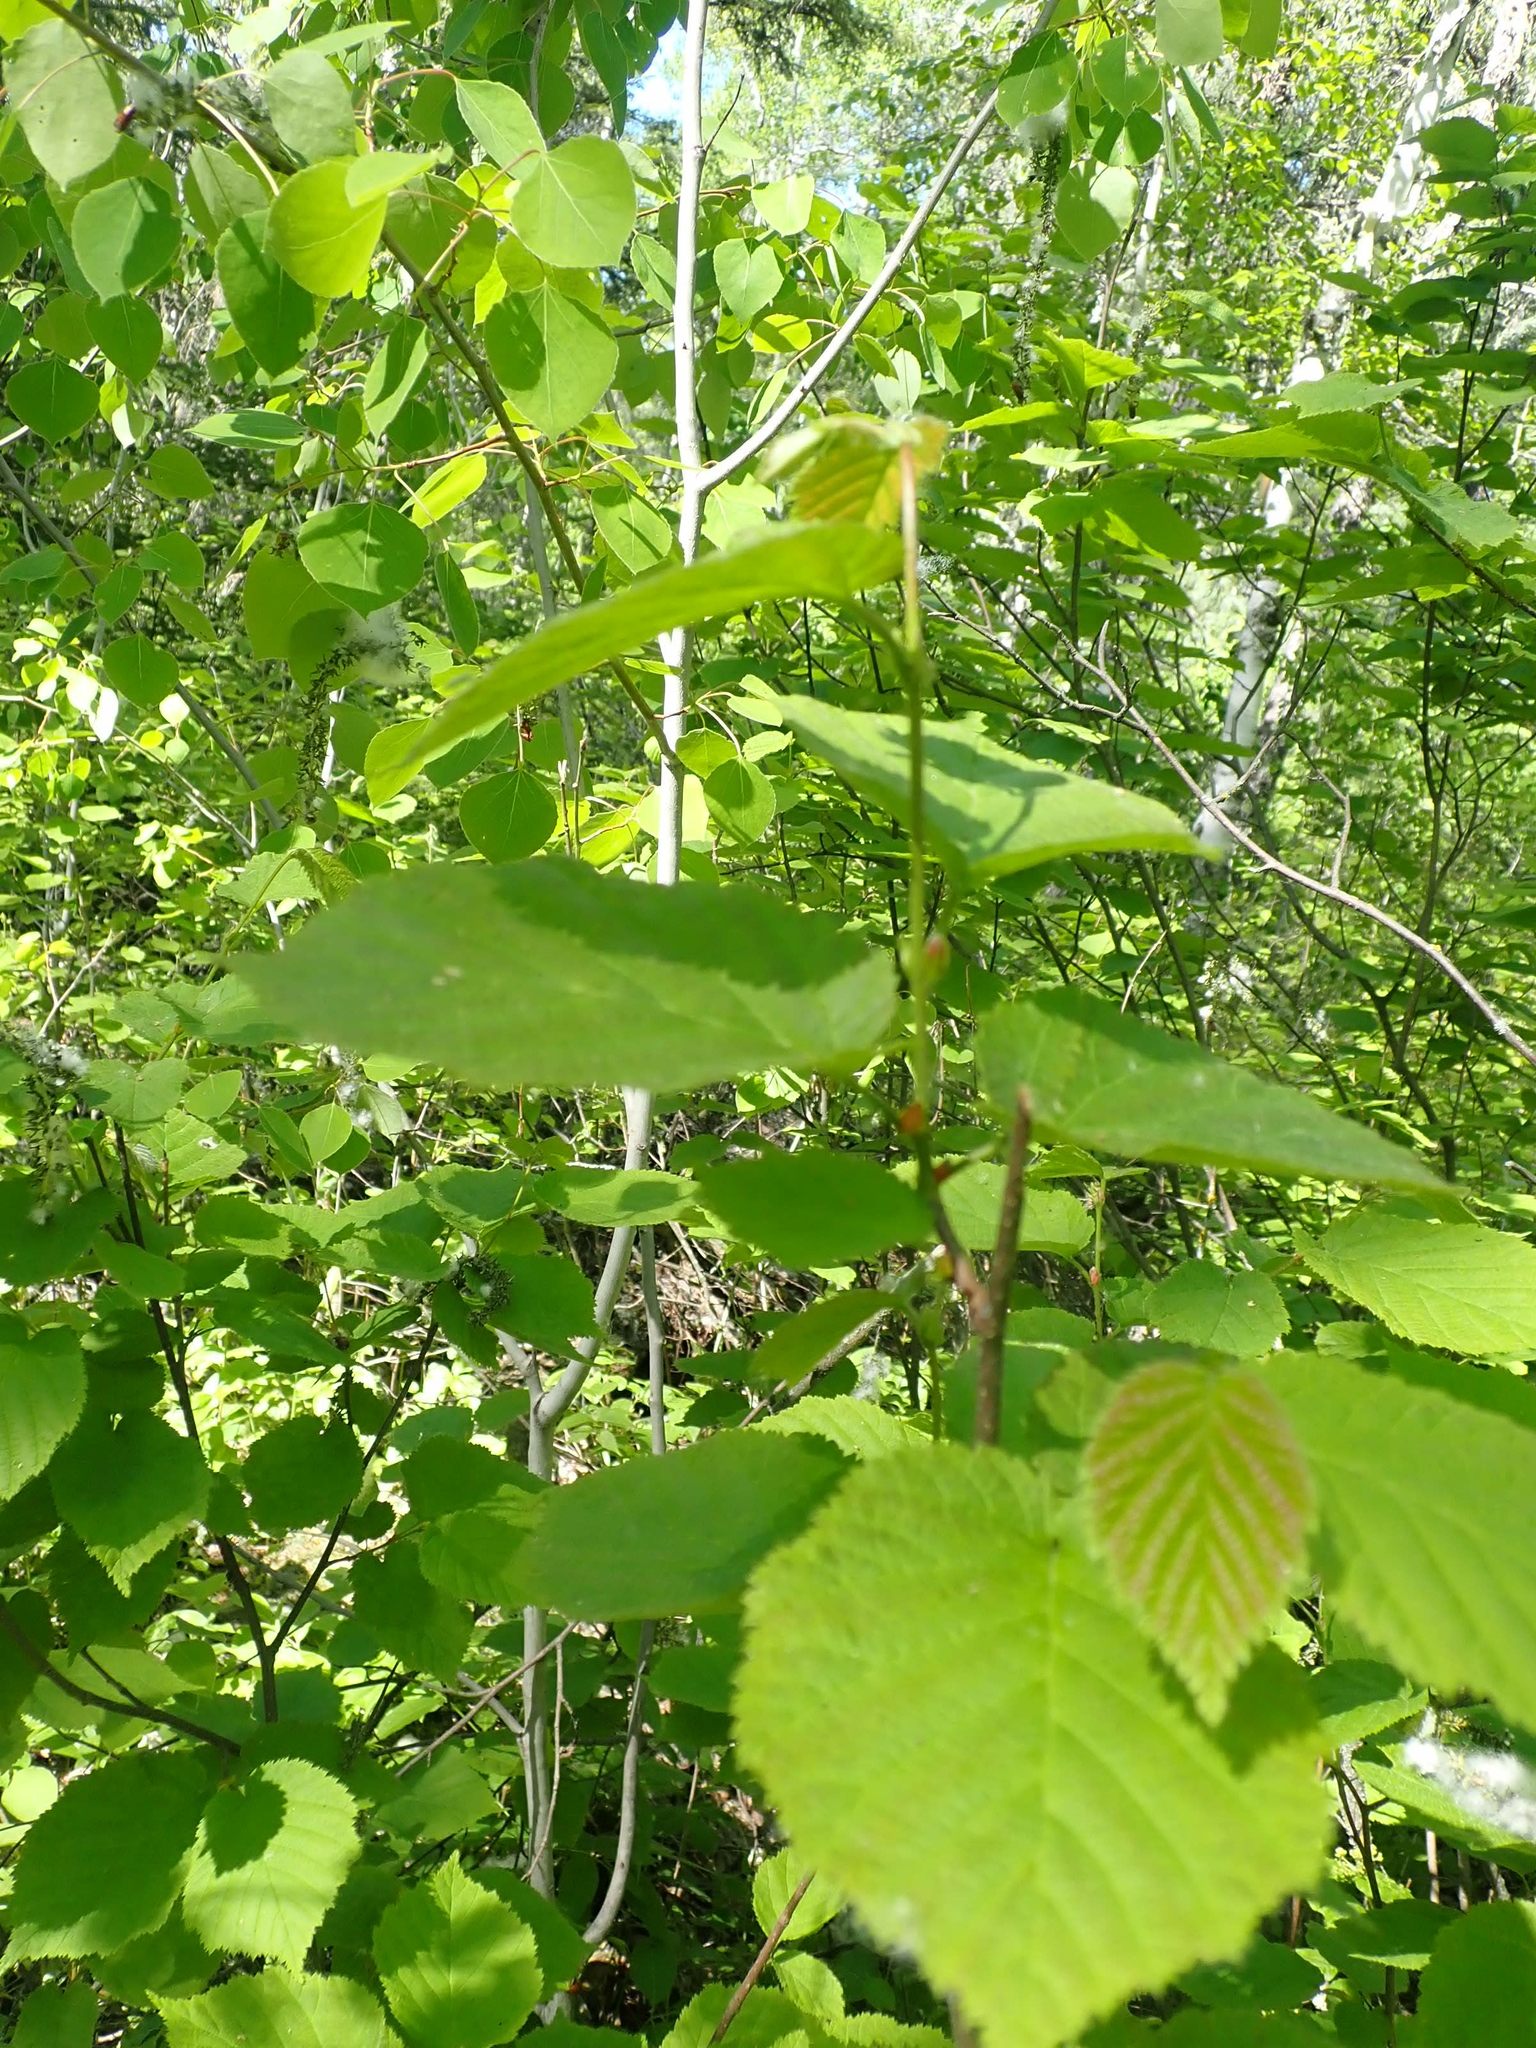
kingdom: Plantae
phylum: Tracheophyta
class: Magnoliopsida
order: Fagales
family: Betulaceae
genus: Corylus
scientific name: Corylus americana
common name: American hazel
